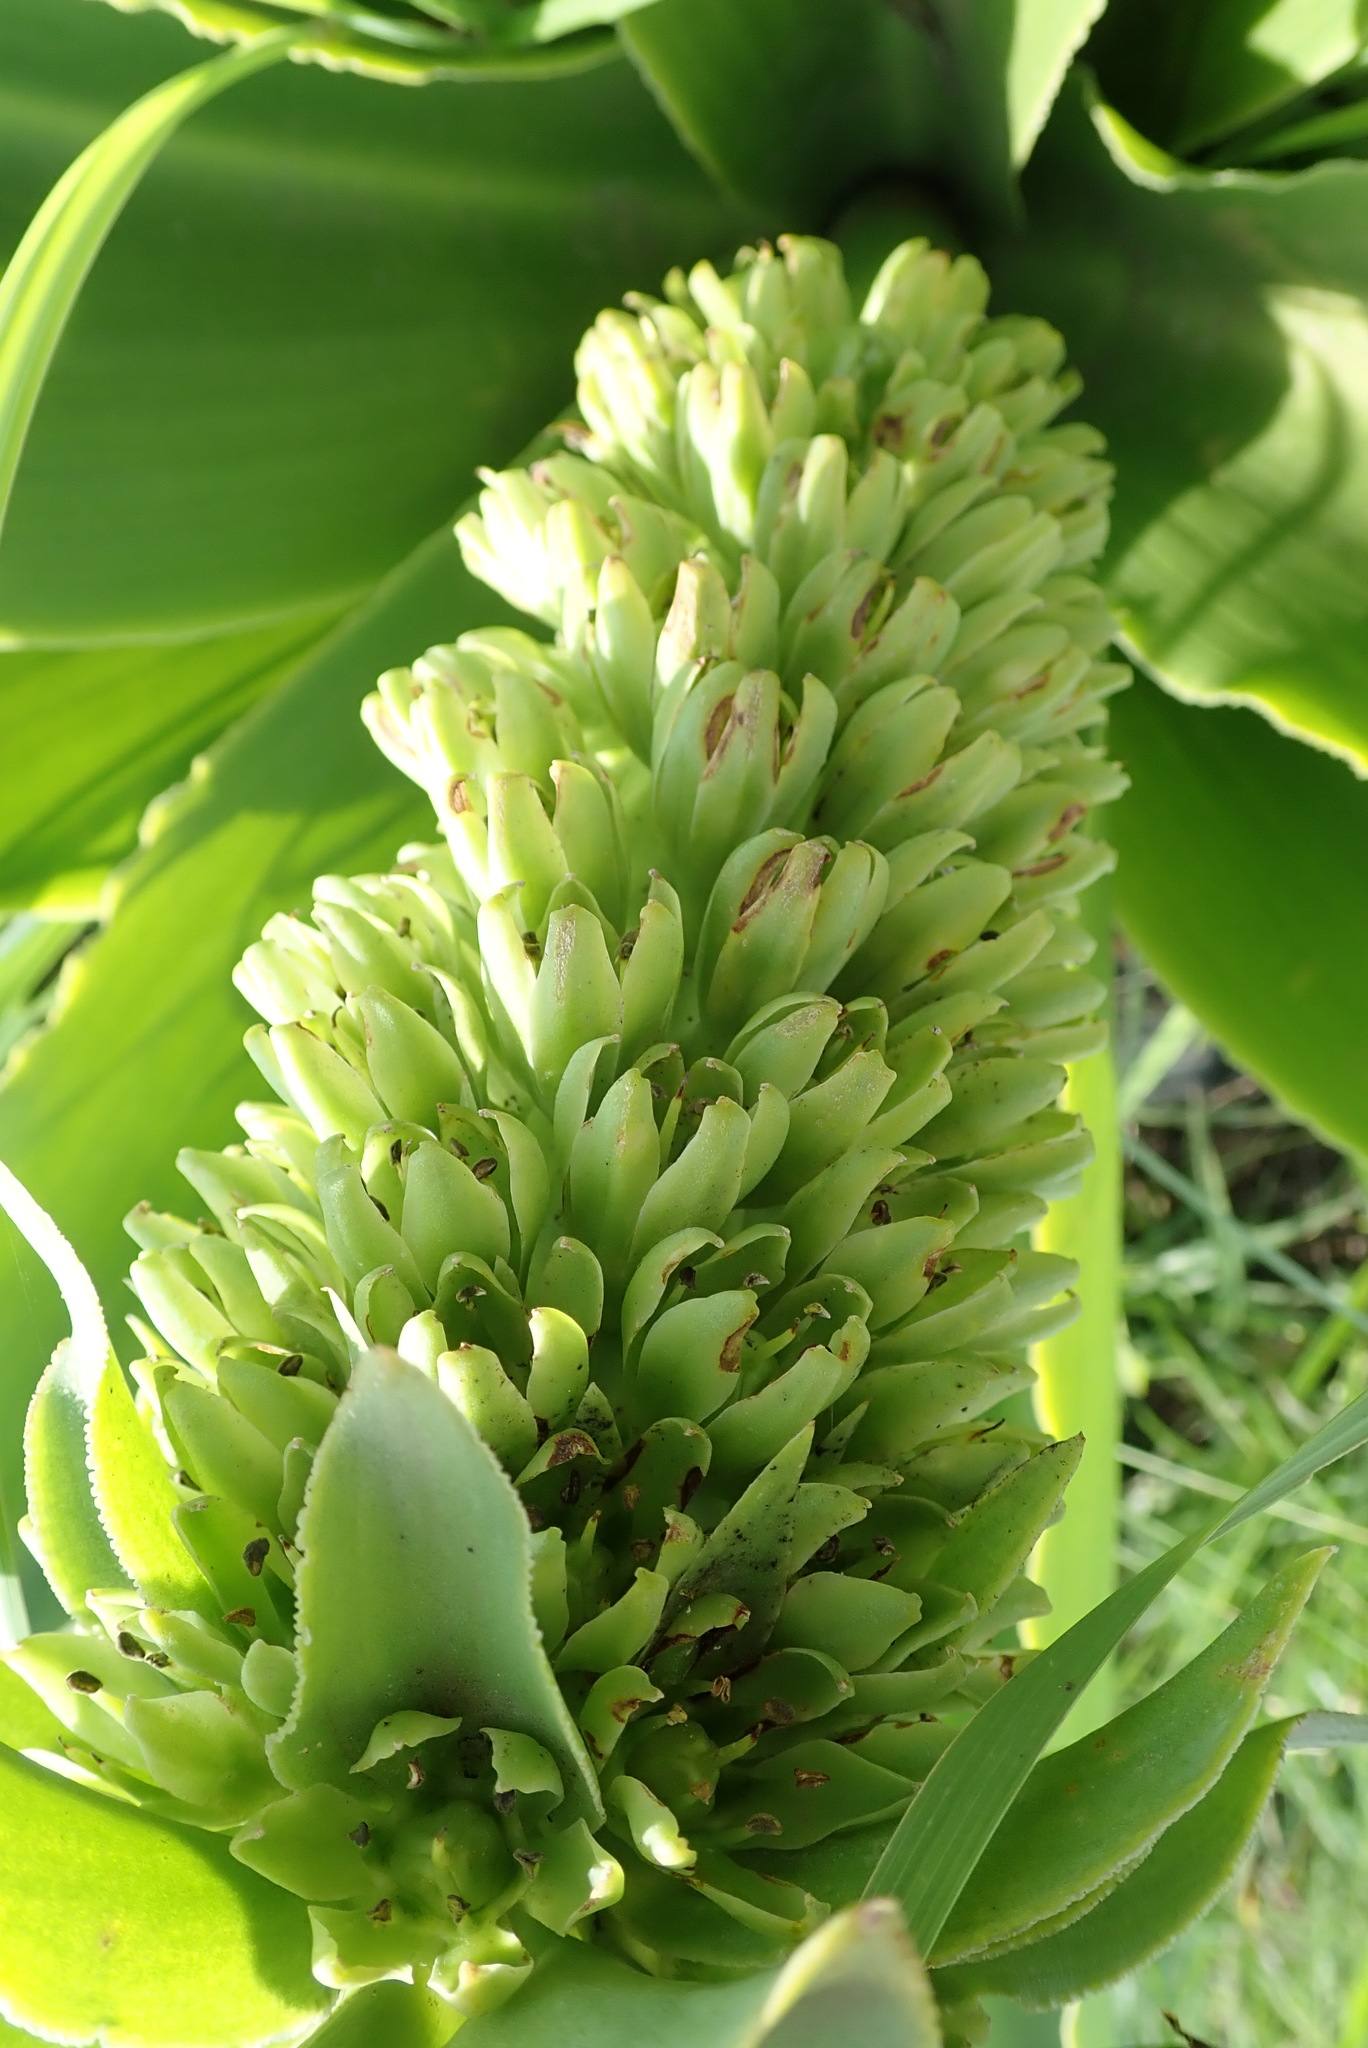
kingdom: Plantae
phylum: Tracheophyta
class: Liliopsida
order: Asparagales
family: Asparagaceae
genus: Eucomis
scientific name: Eucomis autumnalis
